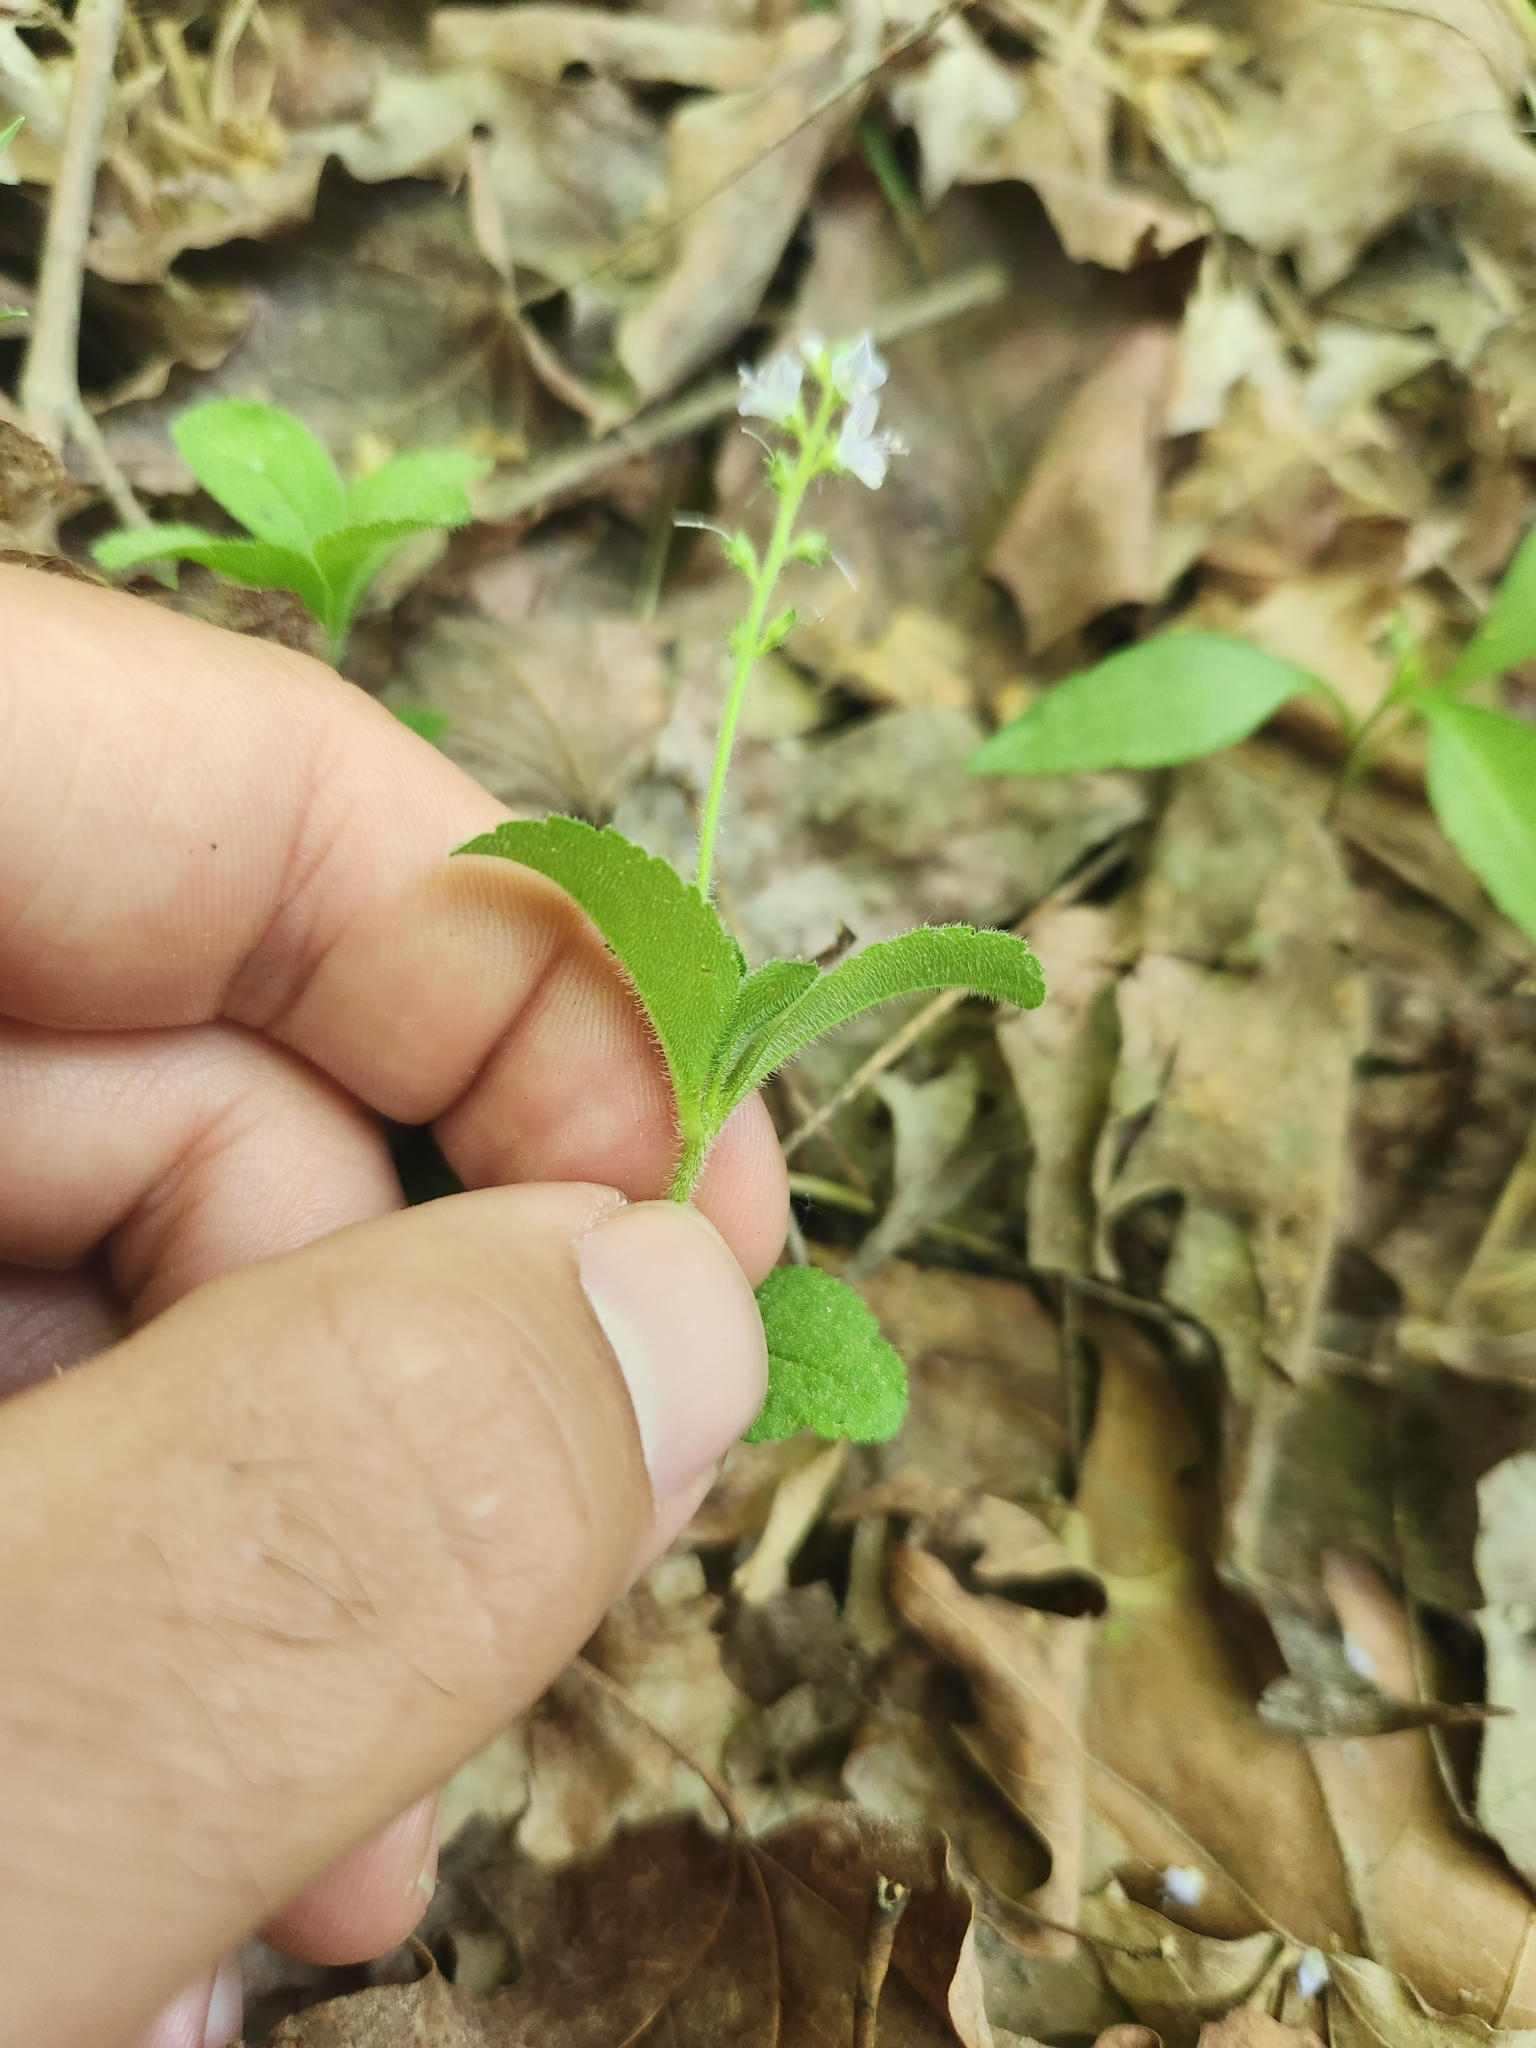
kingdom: Plantae
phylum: Tracheophyta
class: Magnoliopsida
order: Lamiales
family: Plantaginaceae
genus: Veronica
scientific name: Veronica officinalis
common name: Common speedwell
